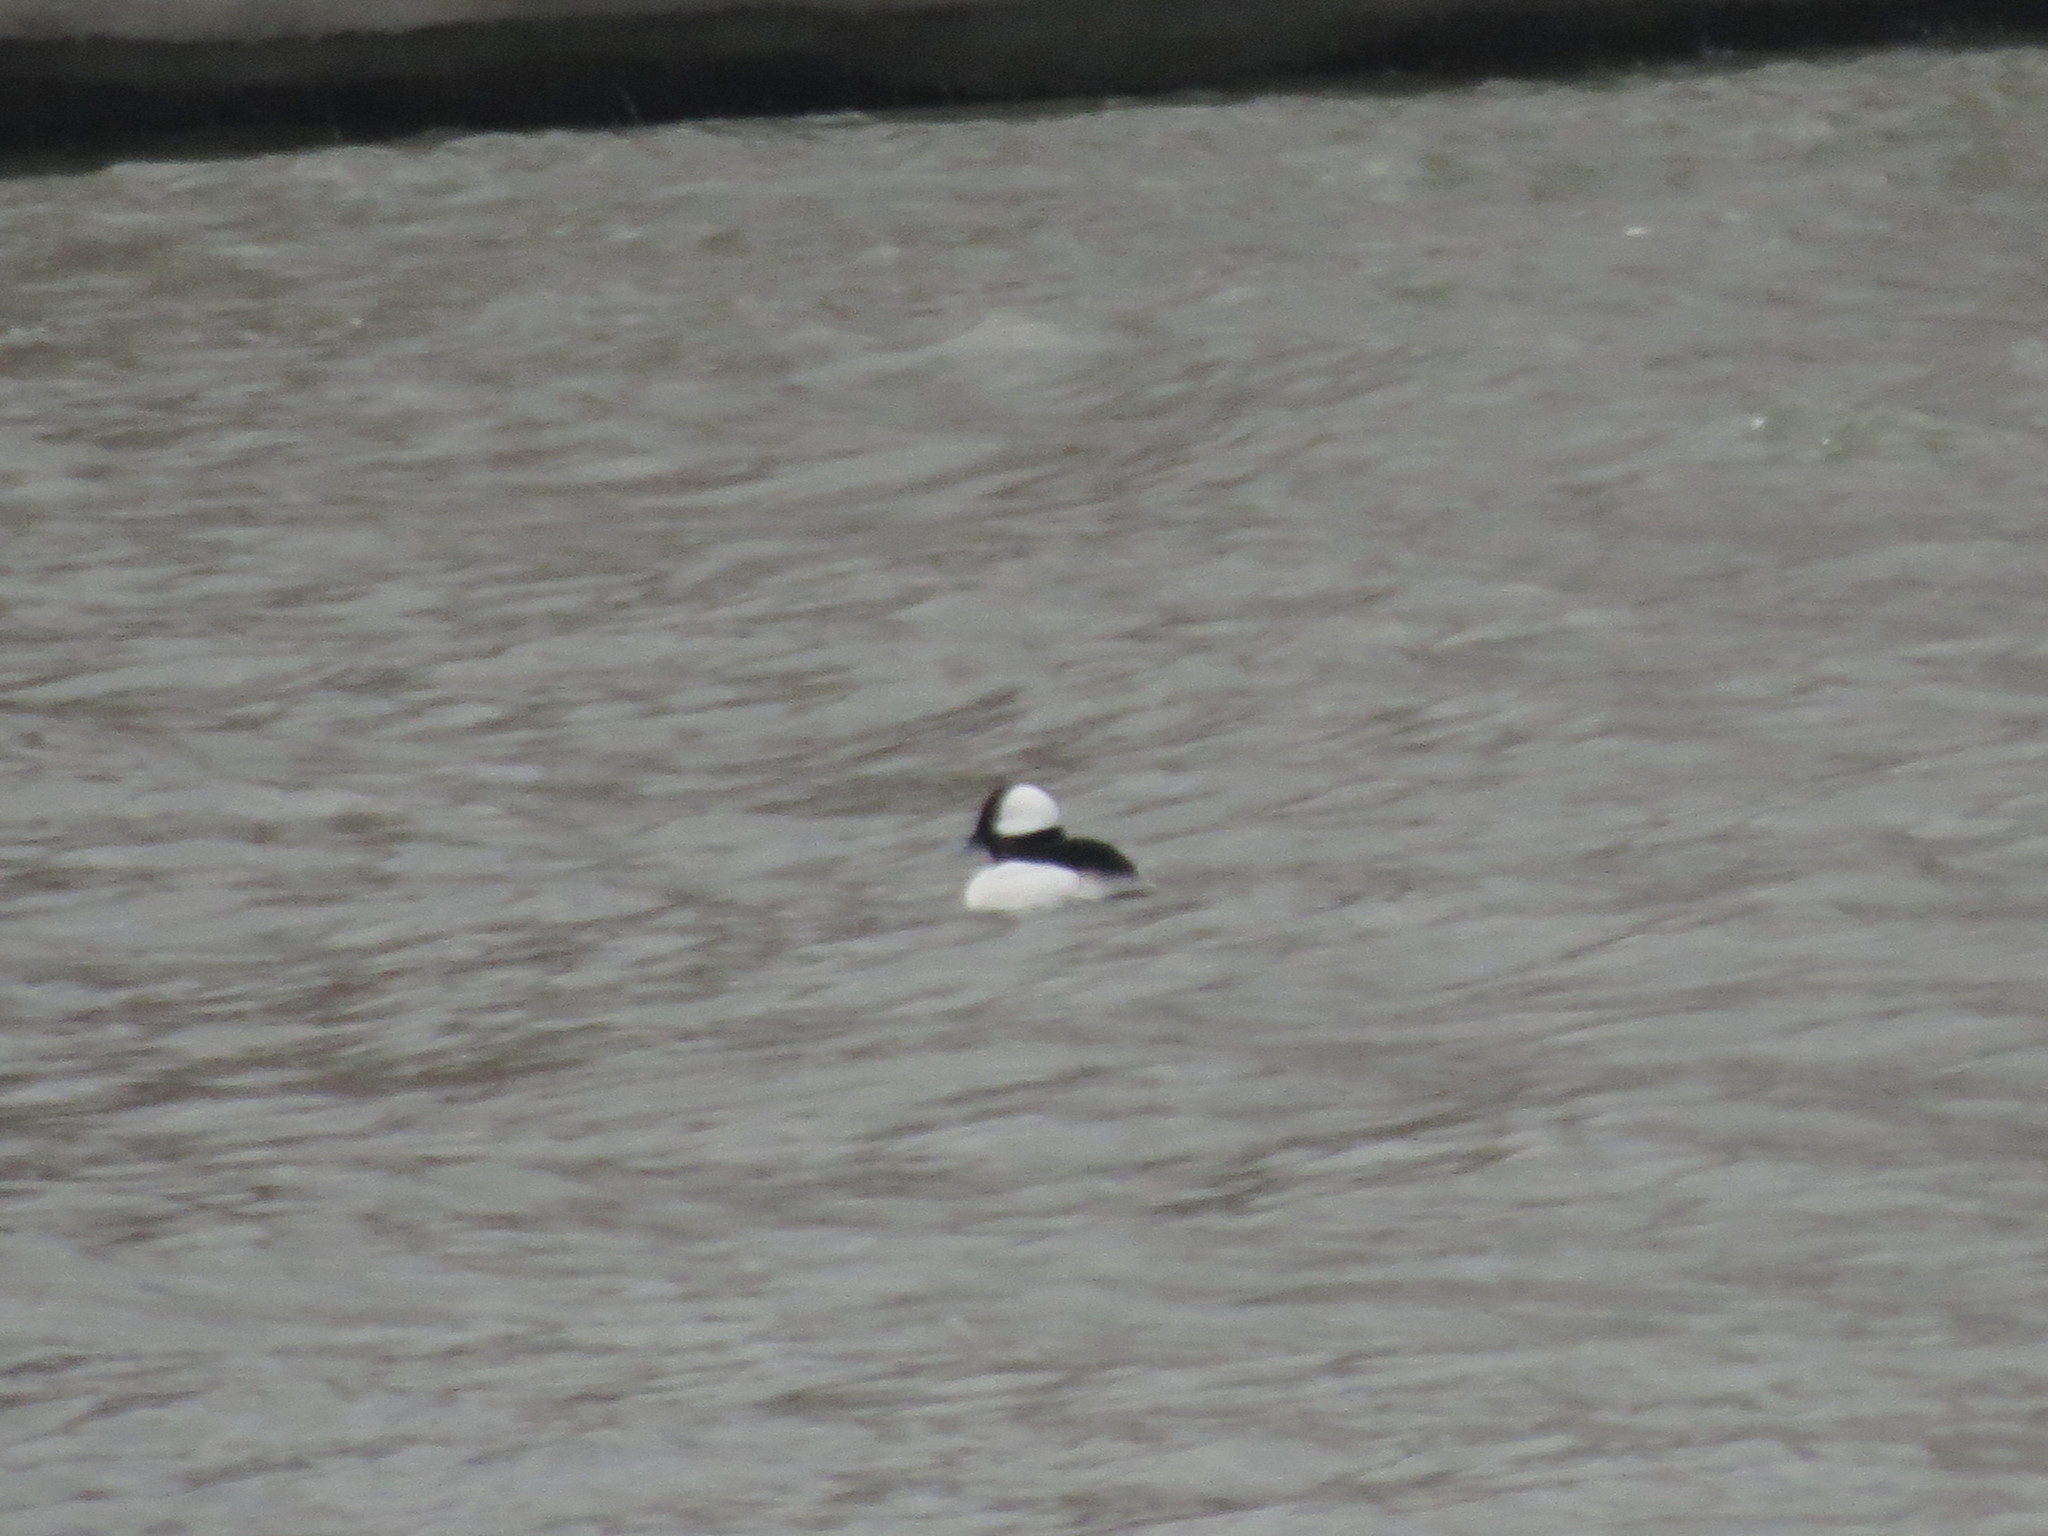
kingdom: Animalia
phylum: Chordata
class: Aves
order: Anseriformes
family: Anatidae
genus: Bucephala
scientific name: Bucephala albeola
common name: Bufflehead
